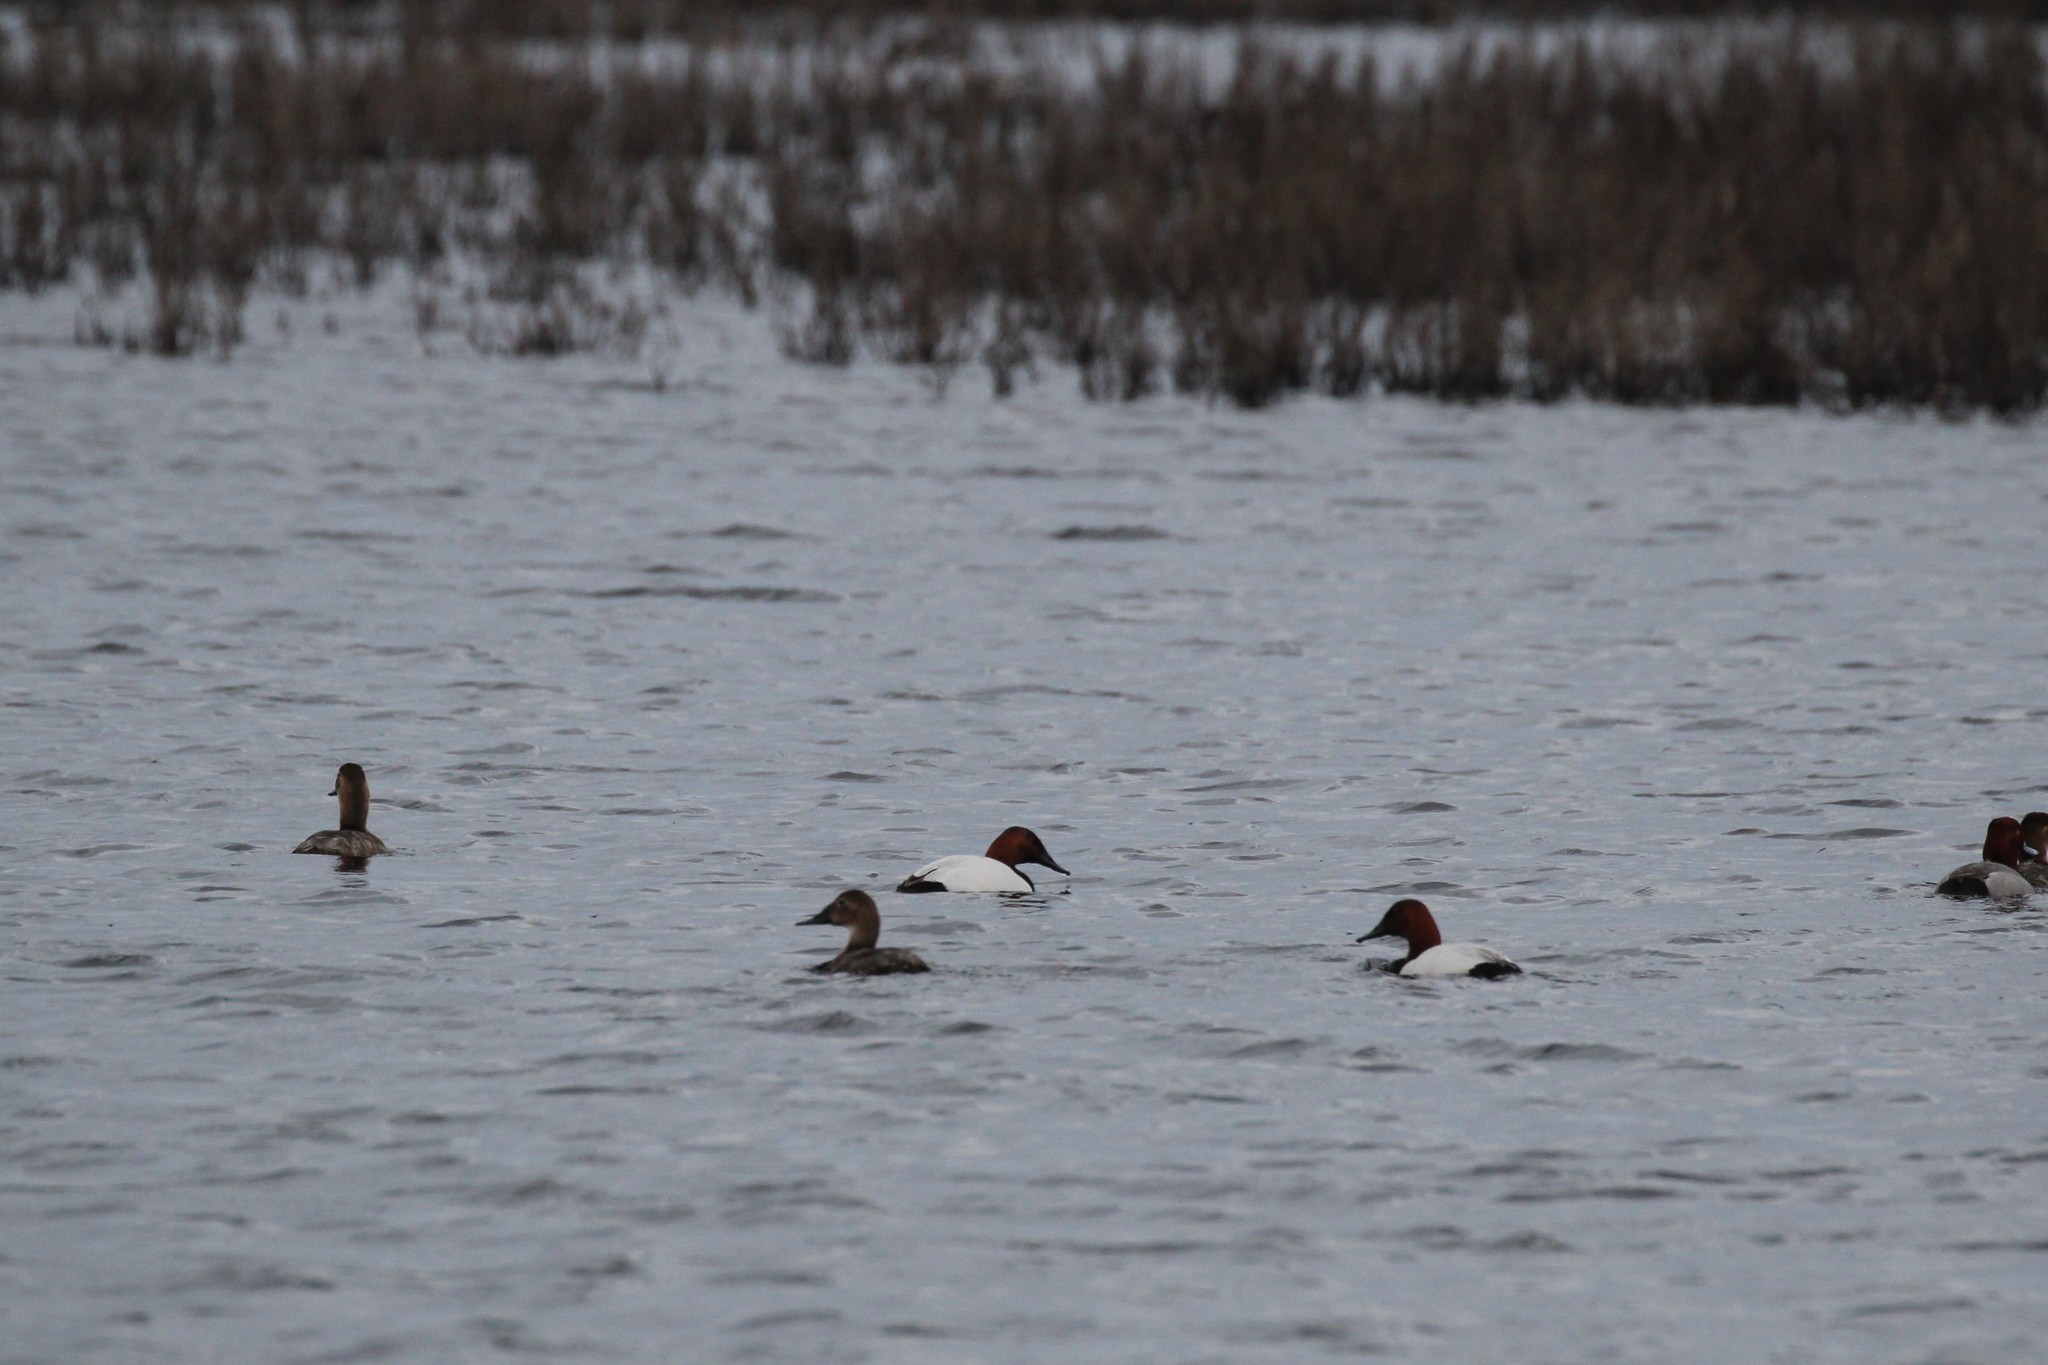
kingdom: Animalia
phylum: Chordata
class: Aves
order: Anseriformes
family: Anatidae
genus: Aythya
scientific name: Aythya valisineria
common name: Canvasback
